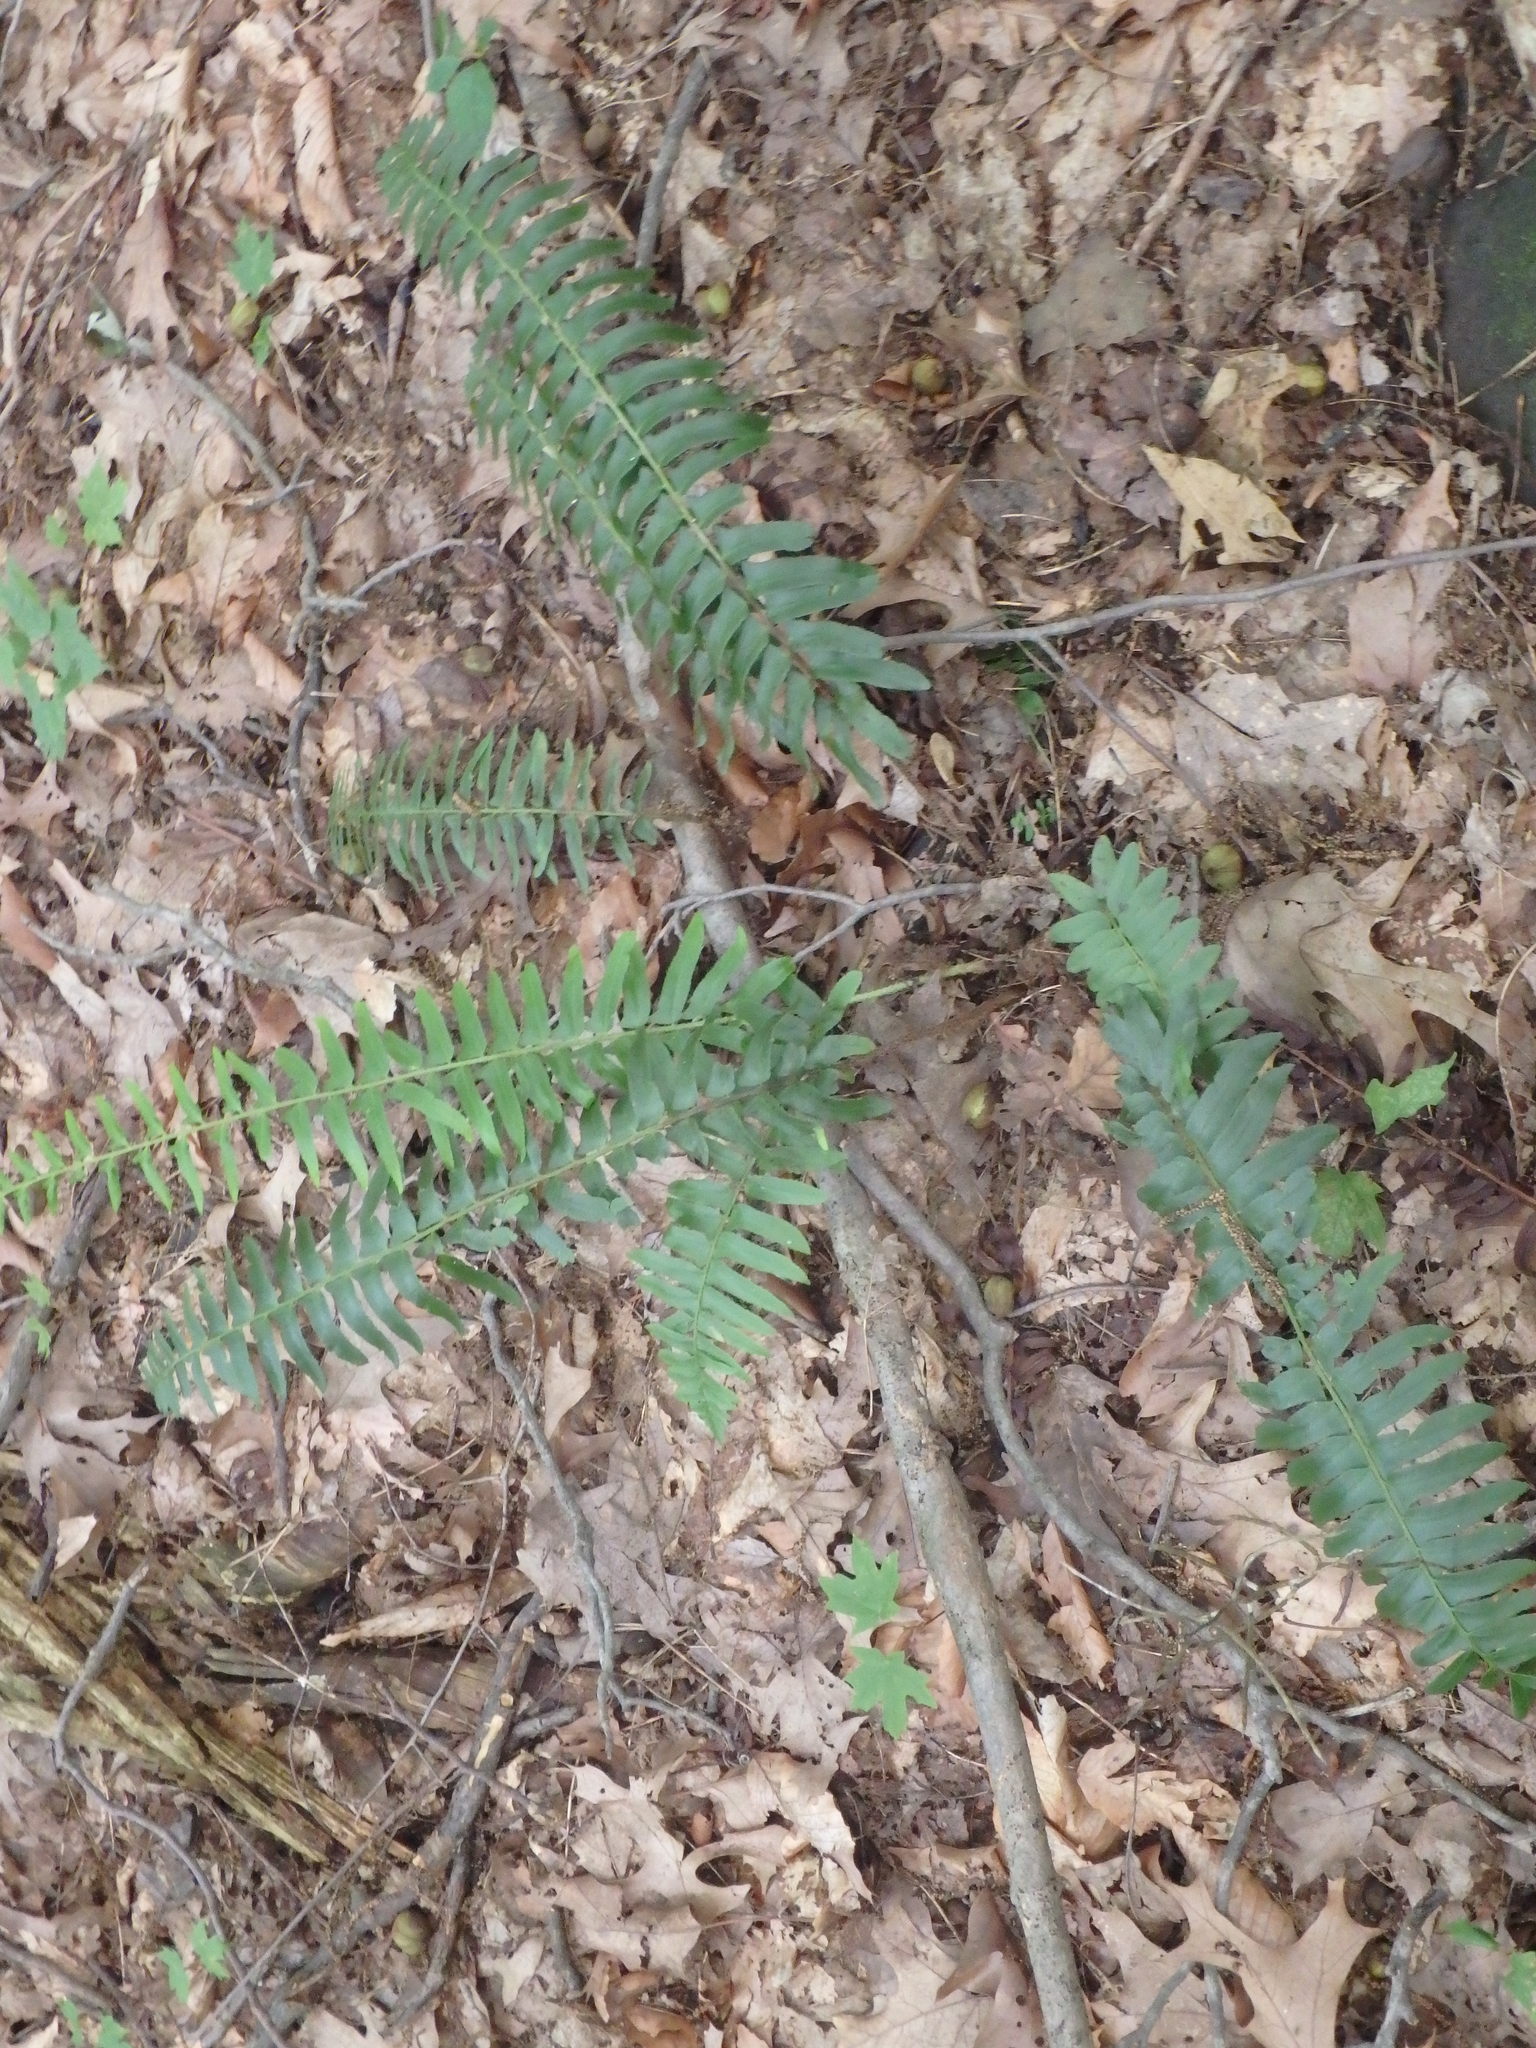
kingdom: Plantae
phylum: Tracheophyta
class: Polypodiopsida
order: Polypodiales
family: Dryopteridaceae
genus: Polystichum
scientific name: Polystichum acrostichoides
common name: Christmas fern
